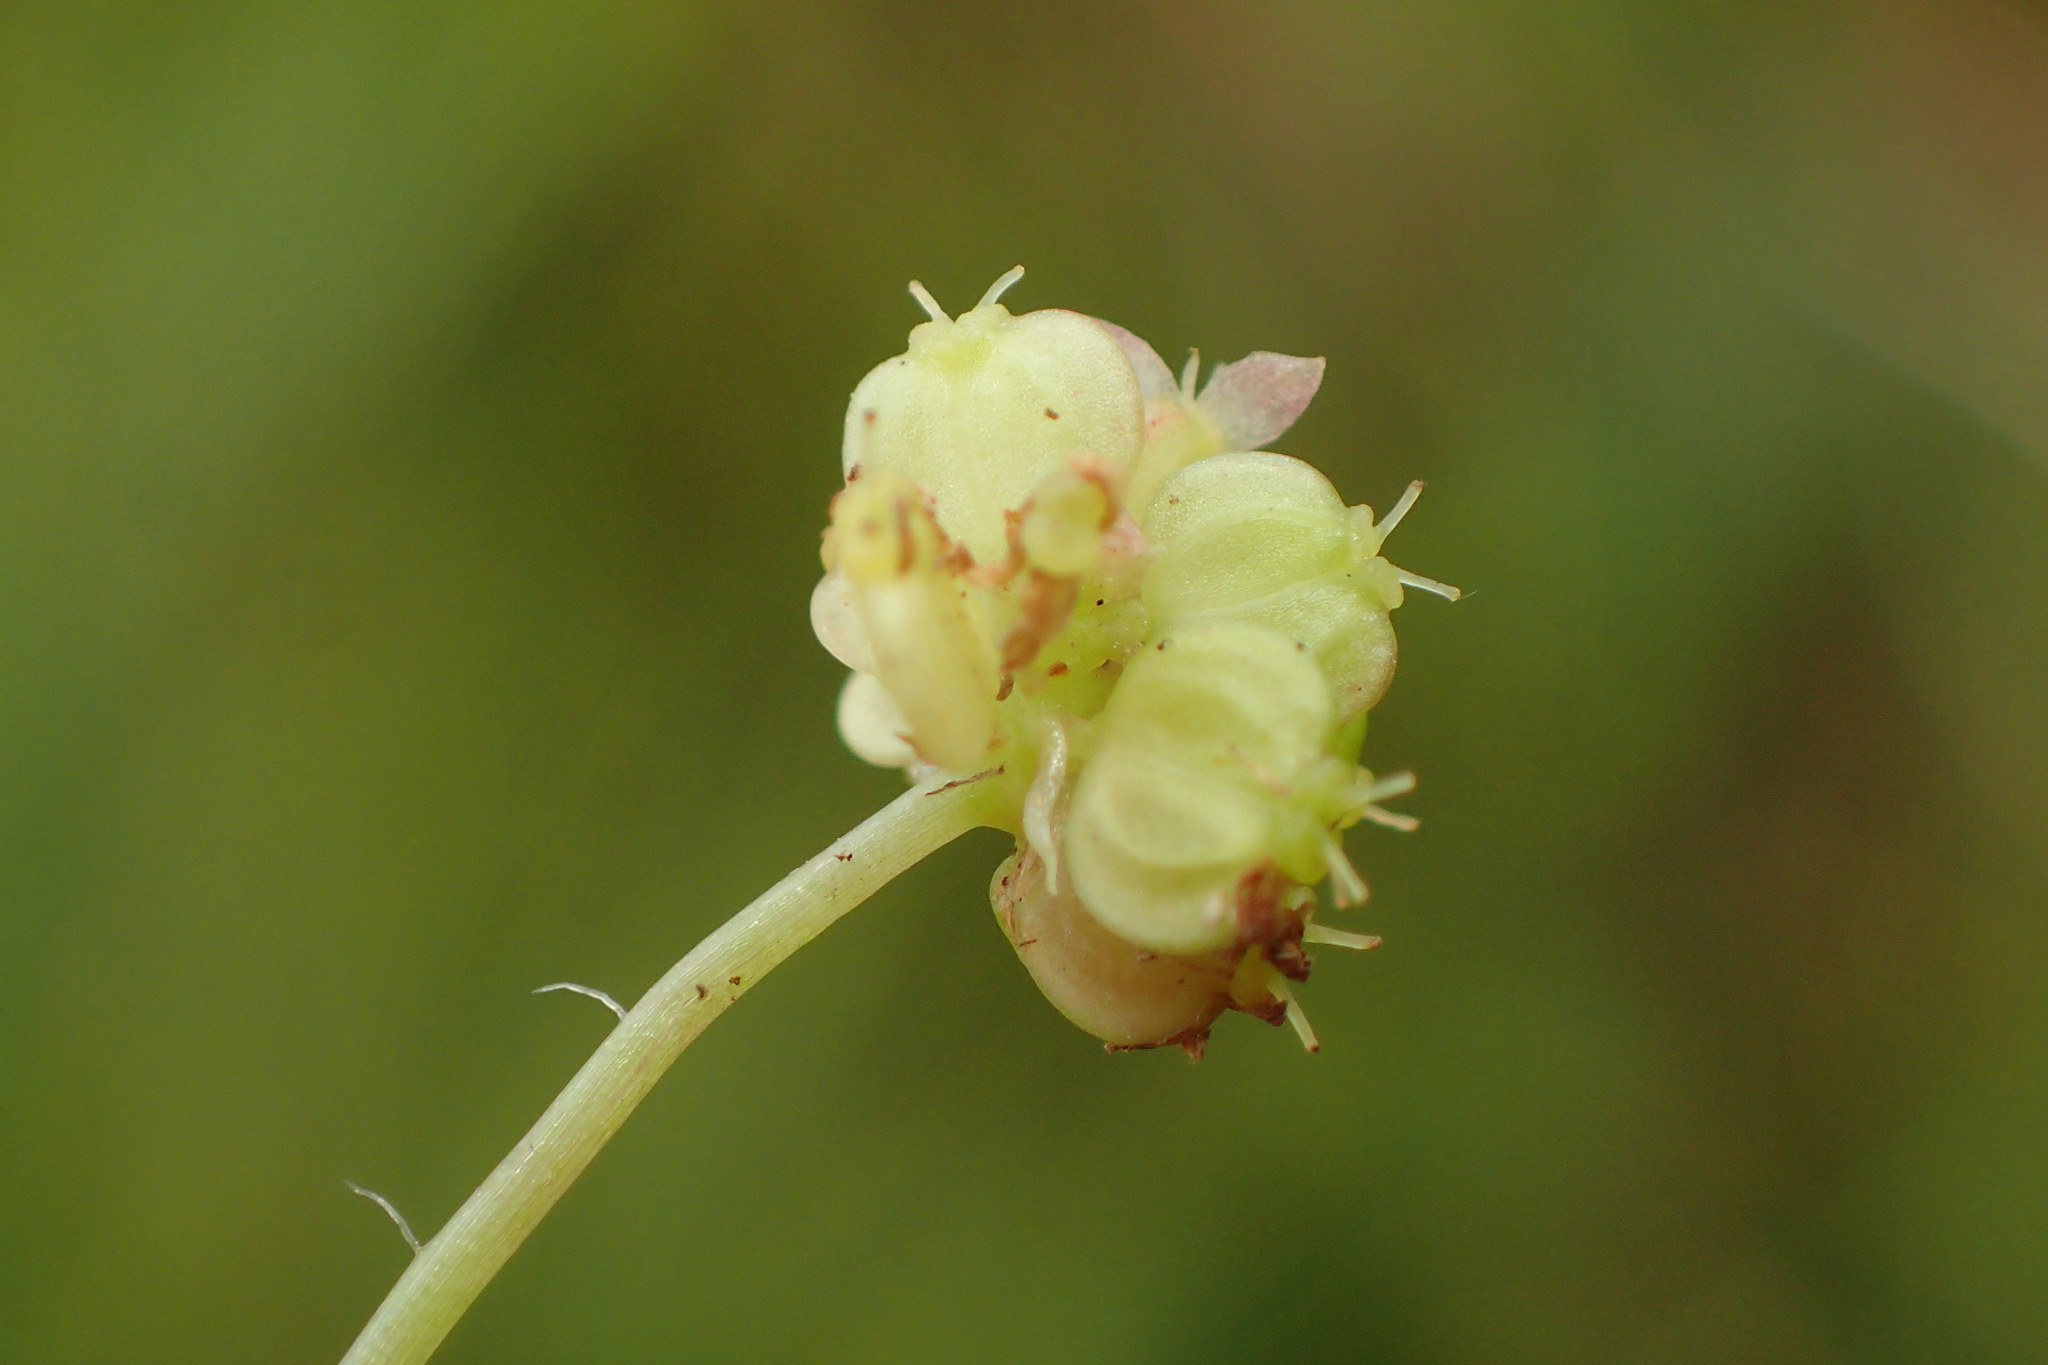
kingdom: Plantae
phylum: Tracheophyta
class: Magnoliopsida
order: Apiales
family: Araliaceae
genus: Hydrocotyle
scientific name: Hydrocotyle vulgaris
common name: Marsh pennywort
